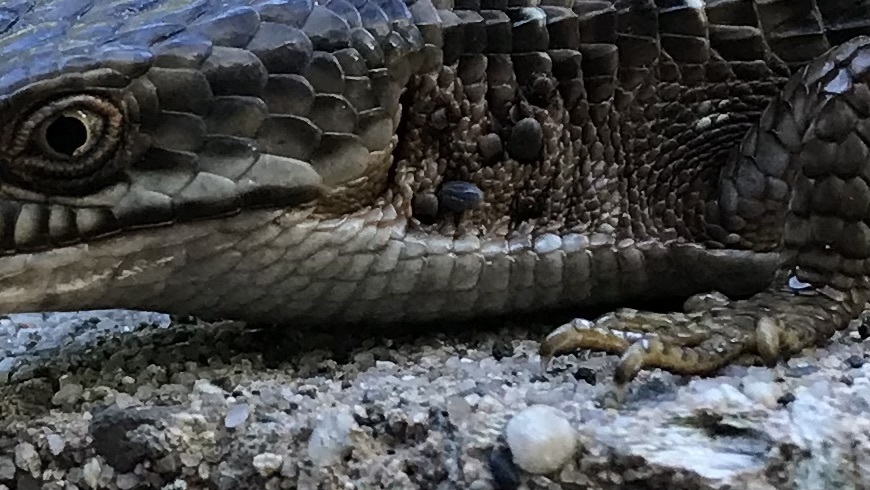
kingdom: Animalia
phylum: Arthropoda
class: Arachnida
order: Ixodida
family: Ixodidae
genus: Ixodes
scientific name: Ixodes pacificus
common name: California black-legged tick
